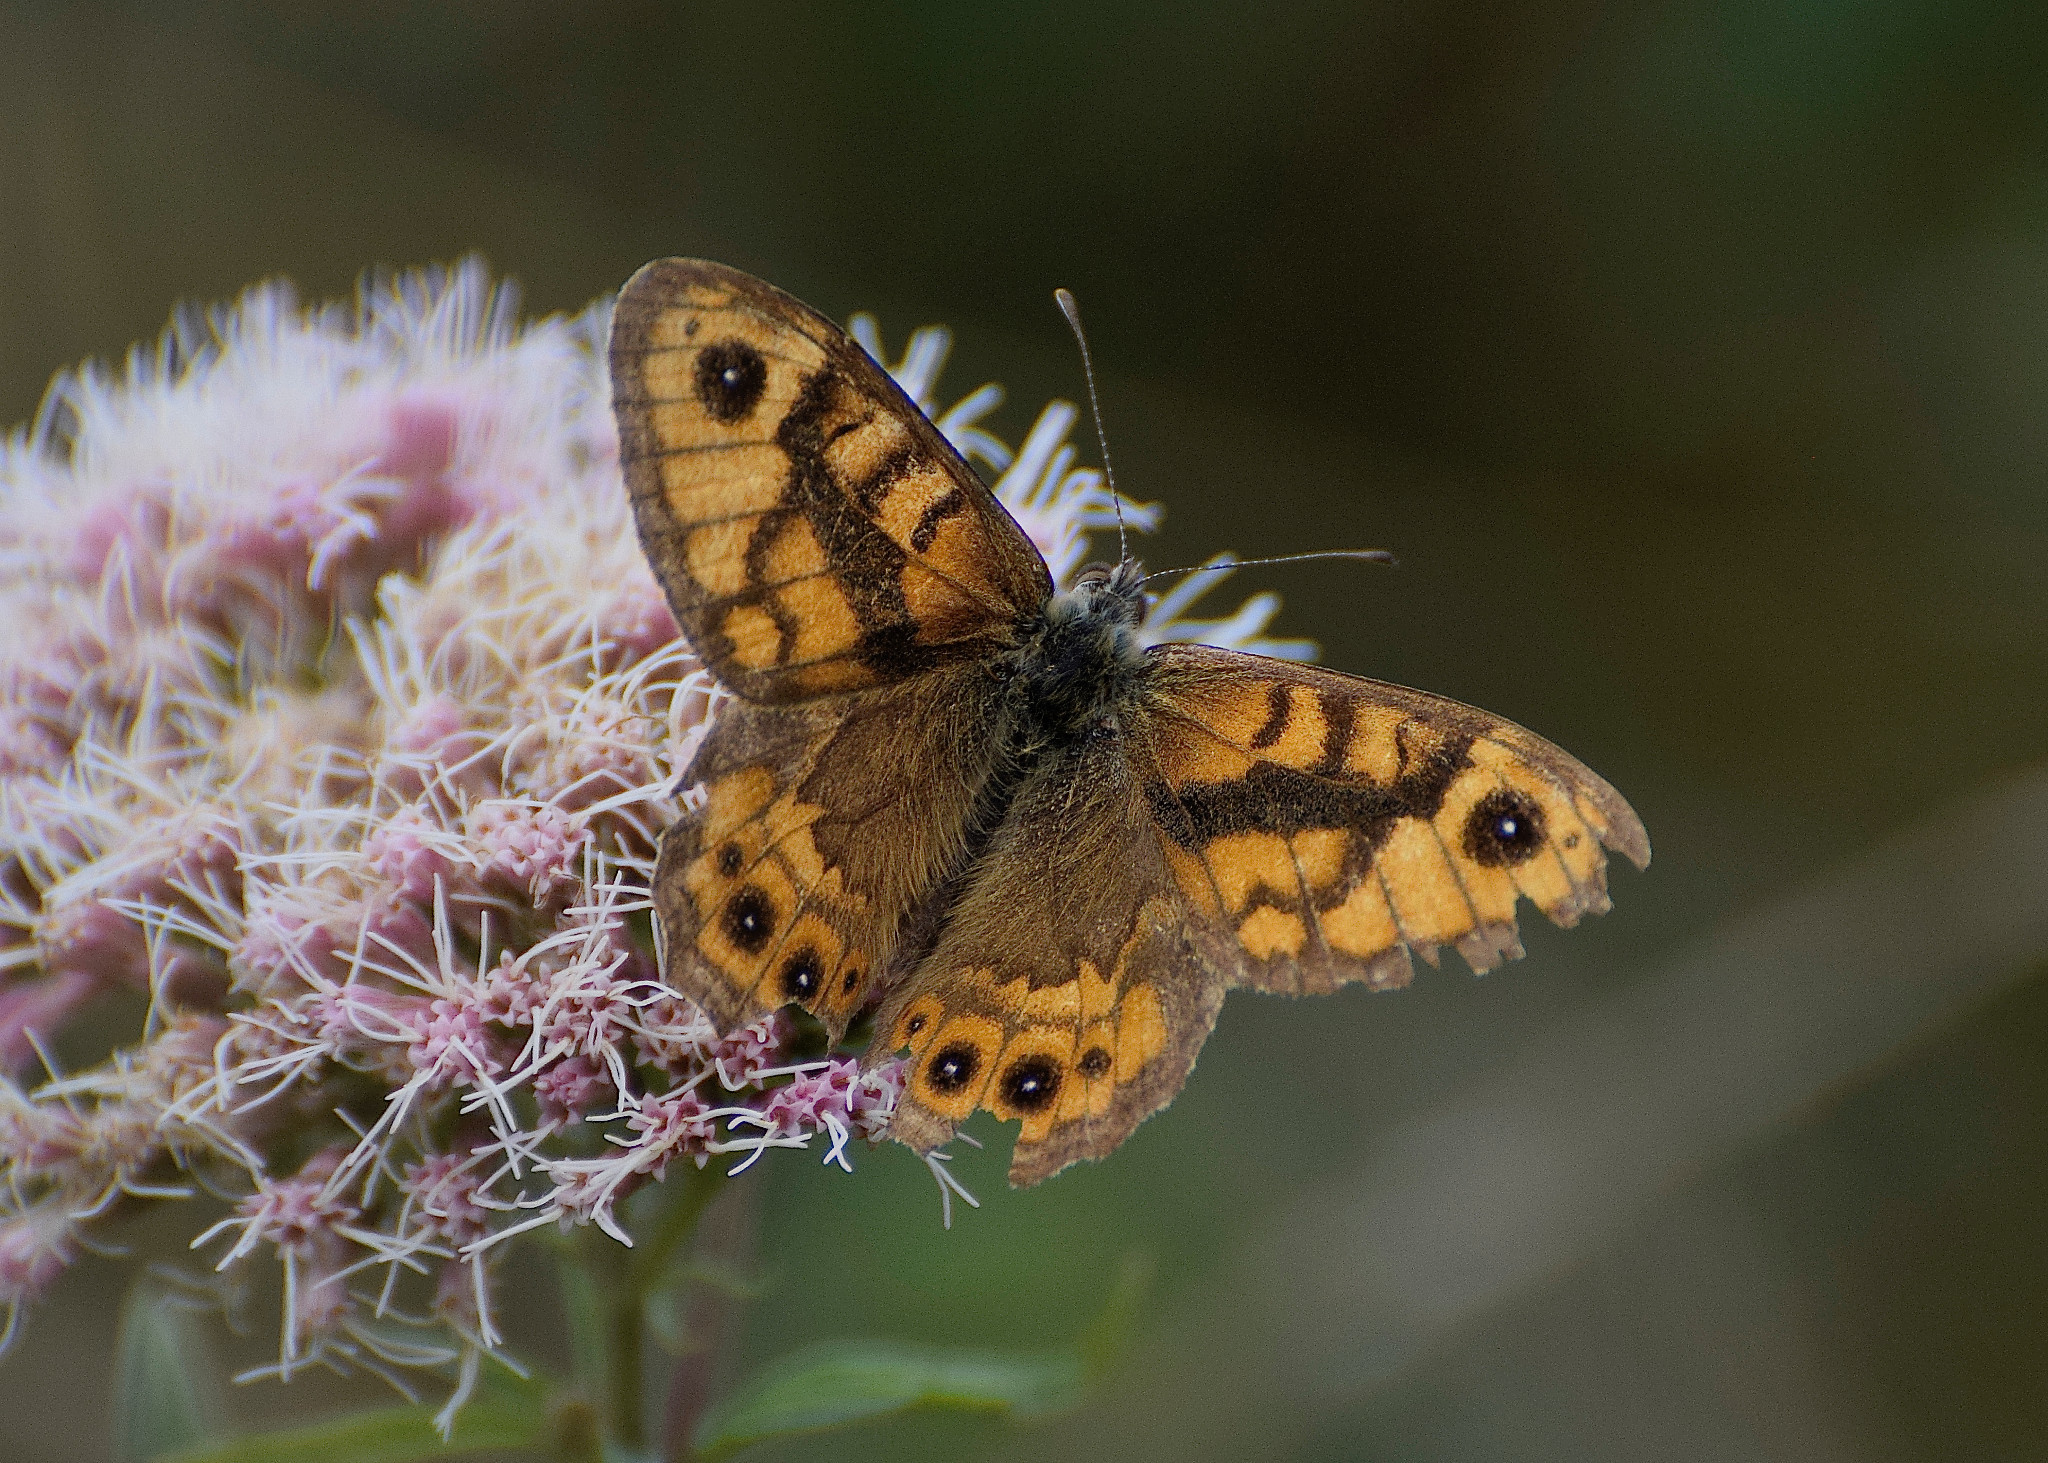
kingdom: Animalia
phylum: Arthropoda
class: Insecta
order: Lepidoptera
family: Nymphalidae
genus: Pararge
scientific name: Pararge Lasiommata megera
